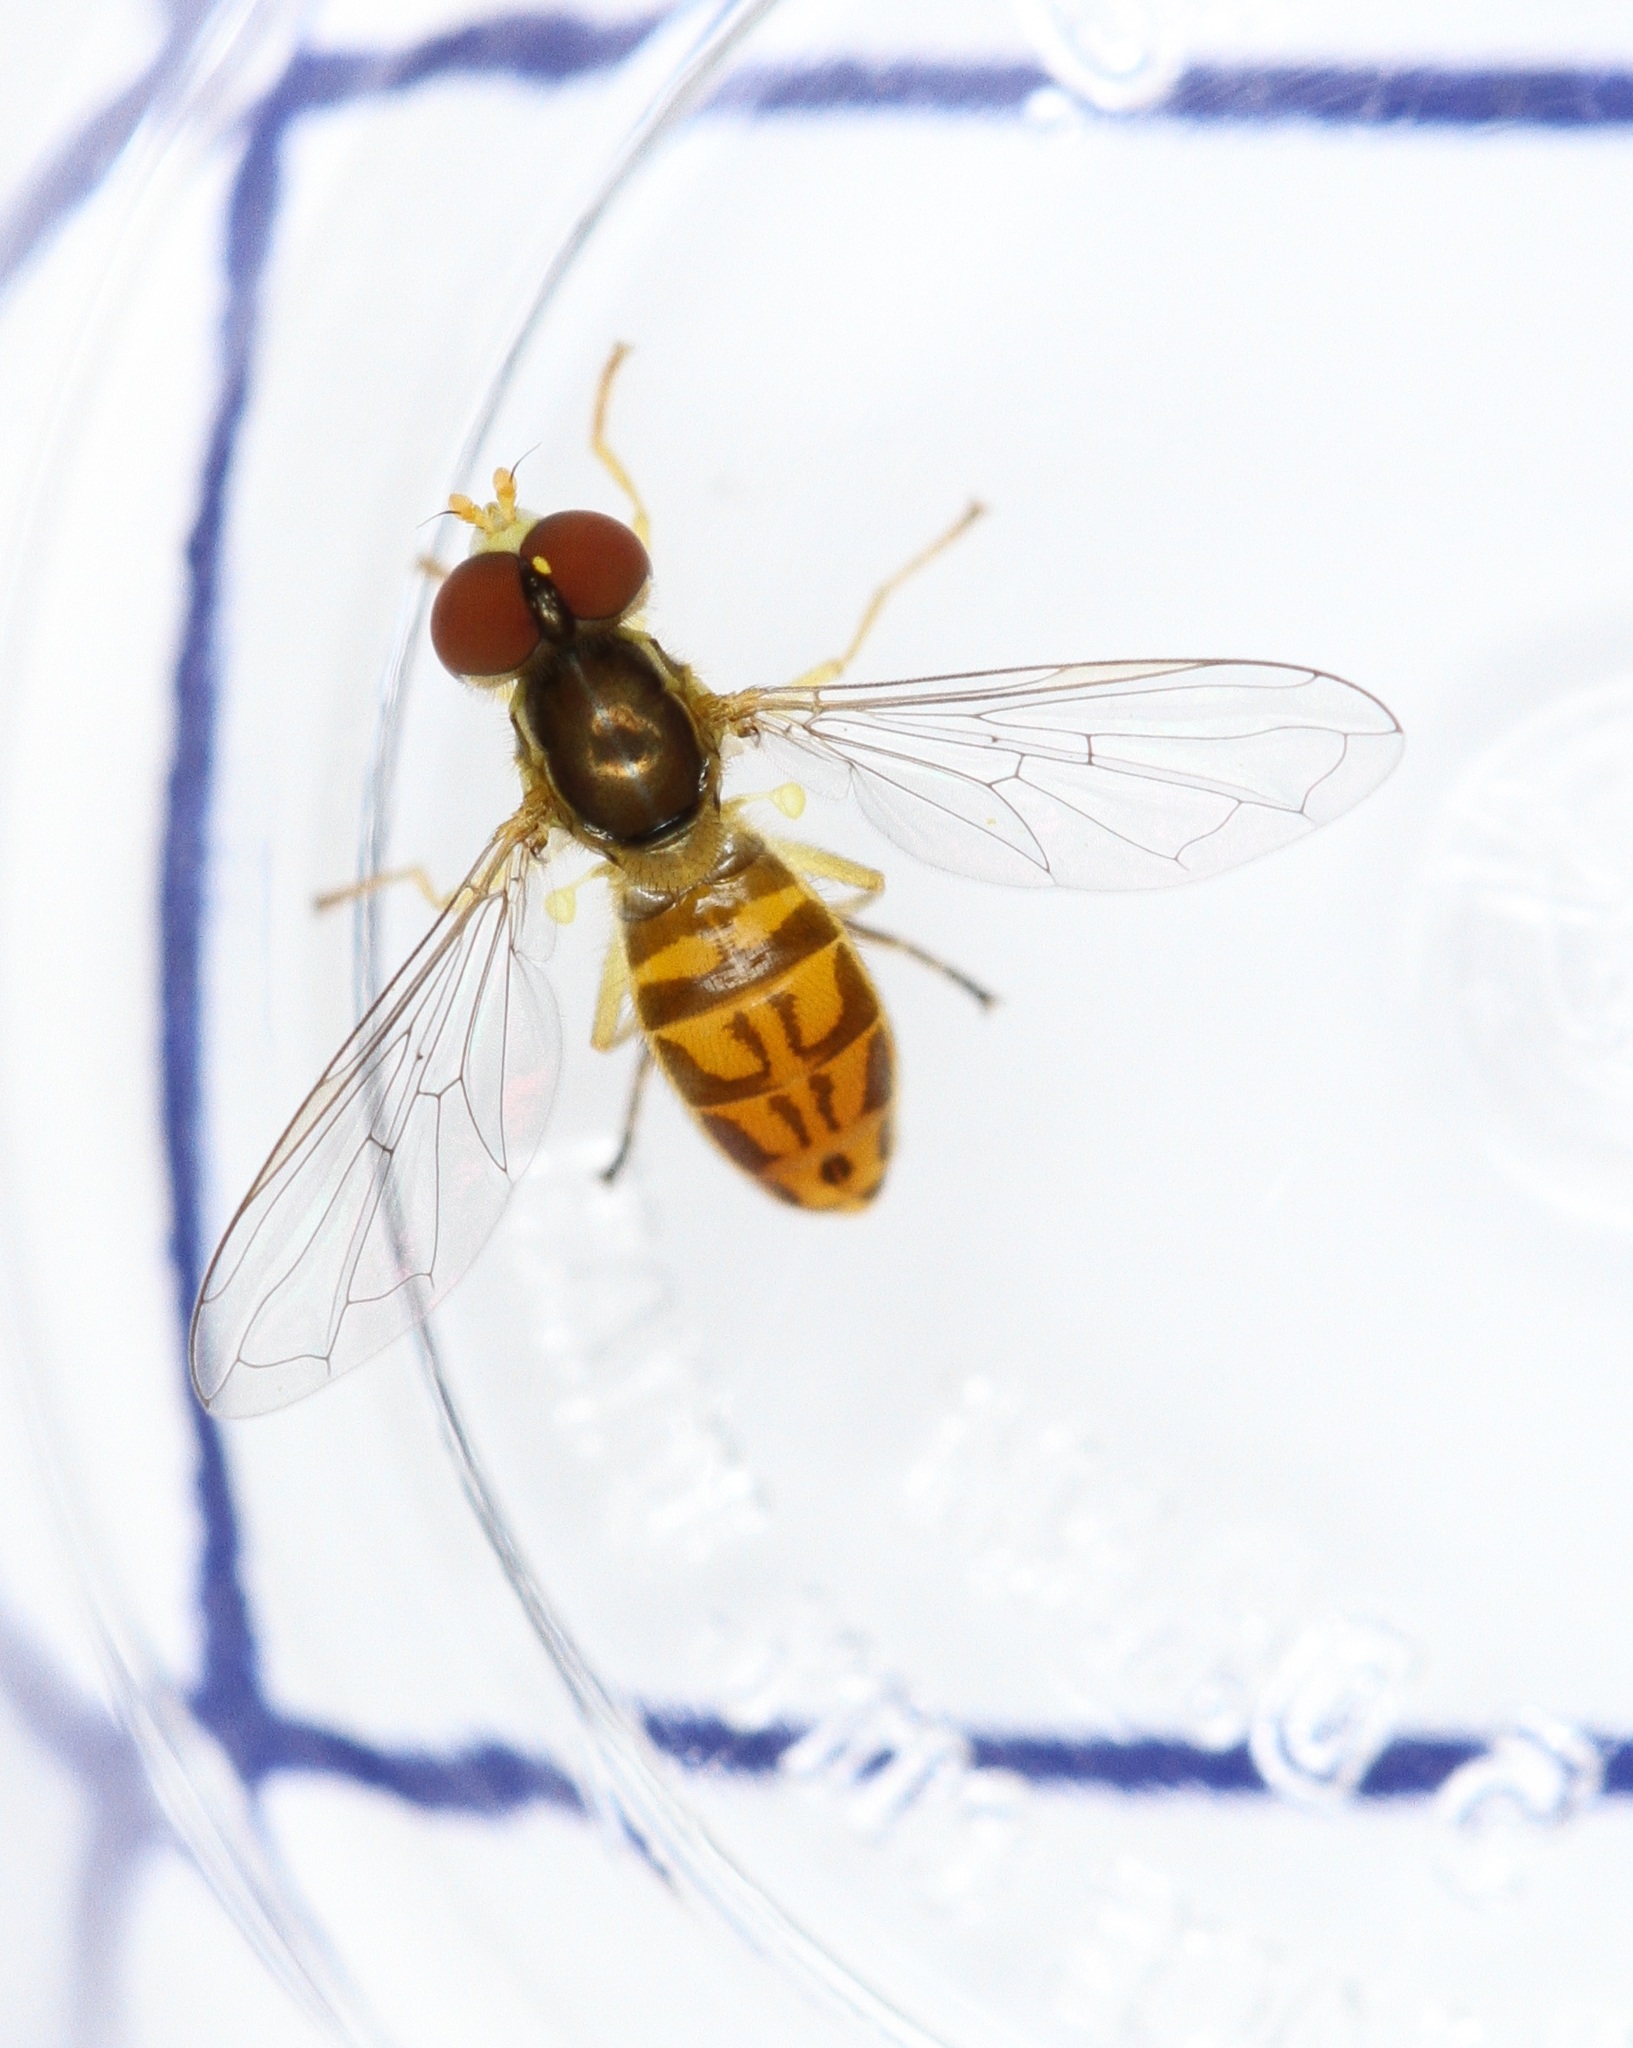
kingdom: Animalia
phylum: Arthropoda
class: Insecta
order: Diptera
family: Syrphidae
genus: Toxomerus
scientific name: Toxomerus marginatus
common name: Syrphid fly
